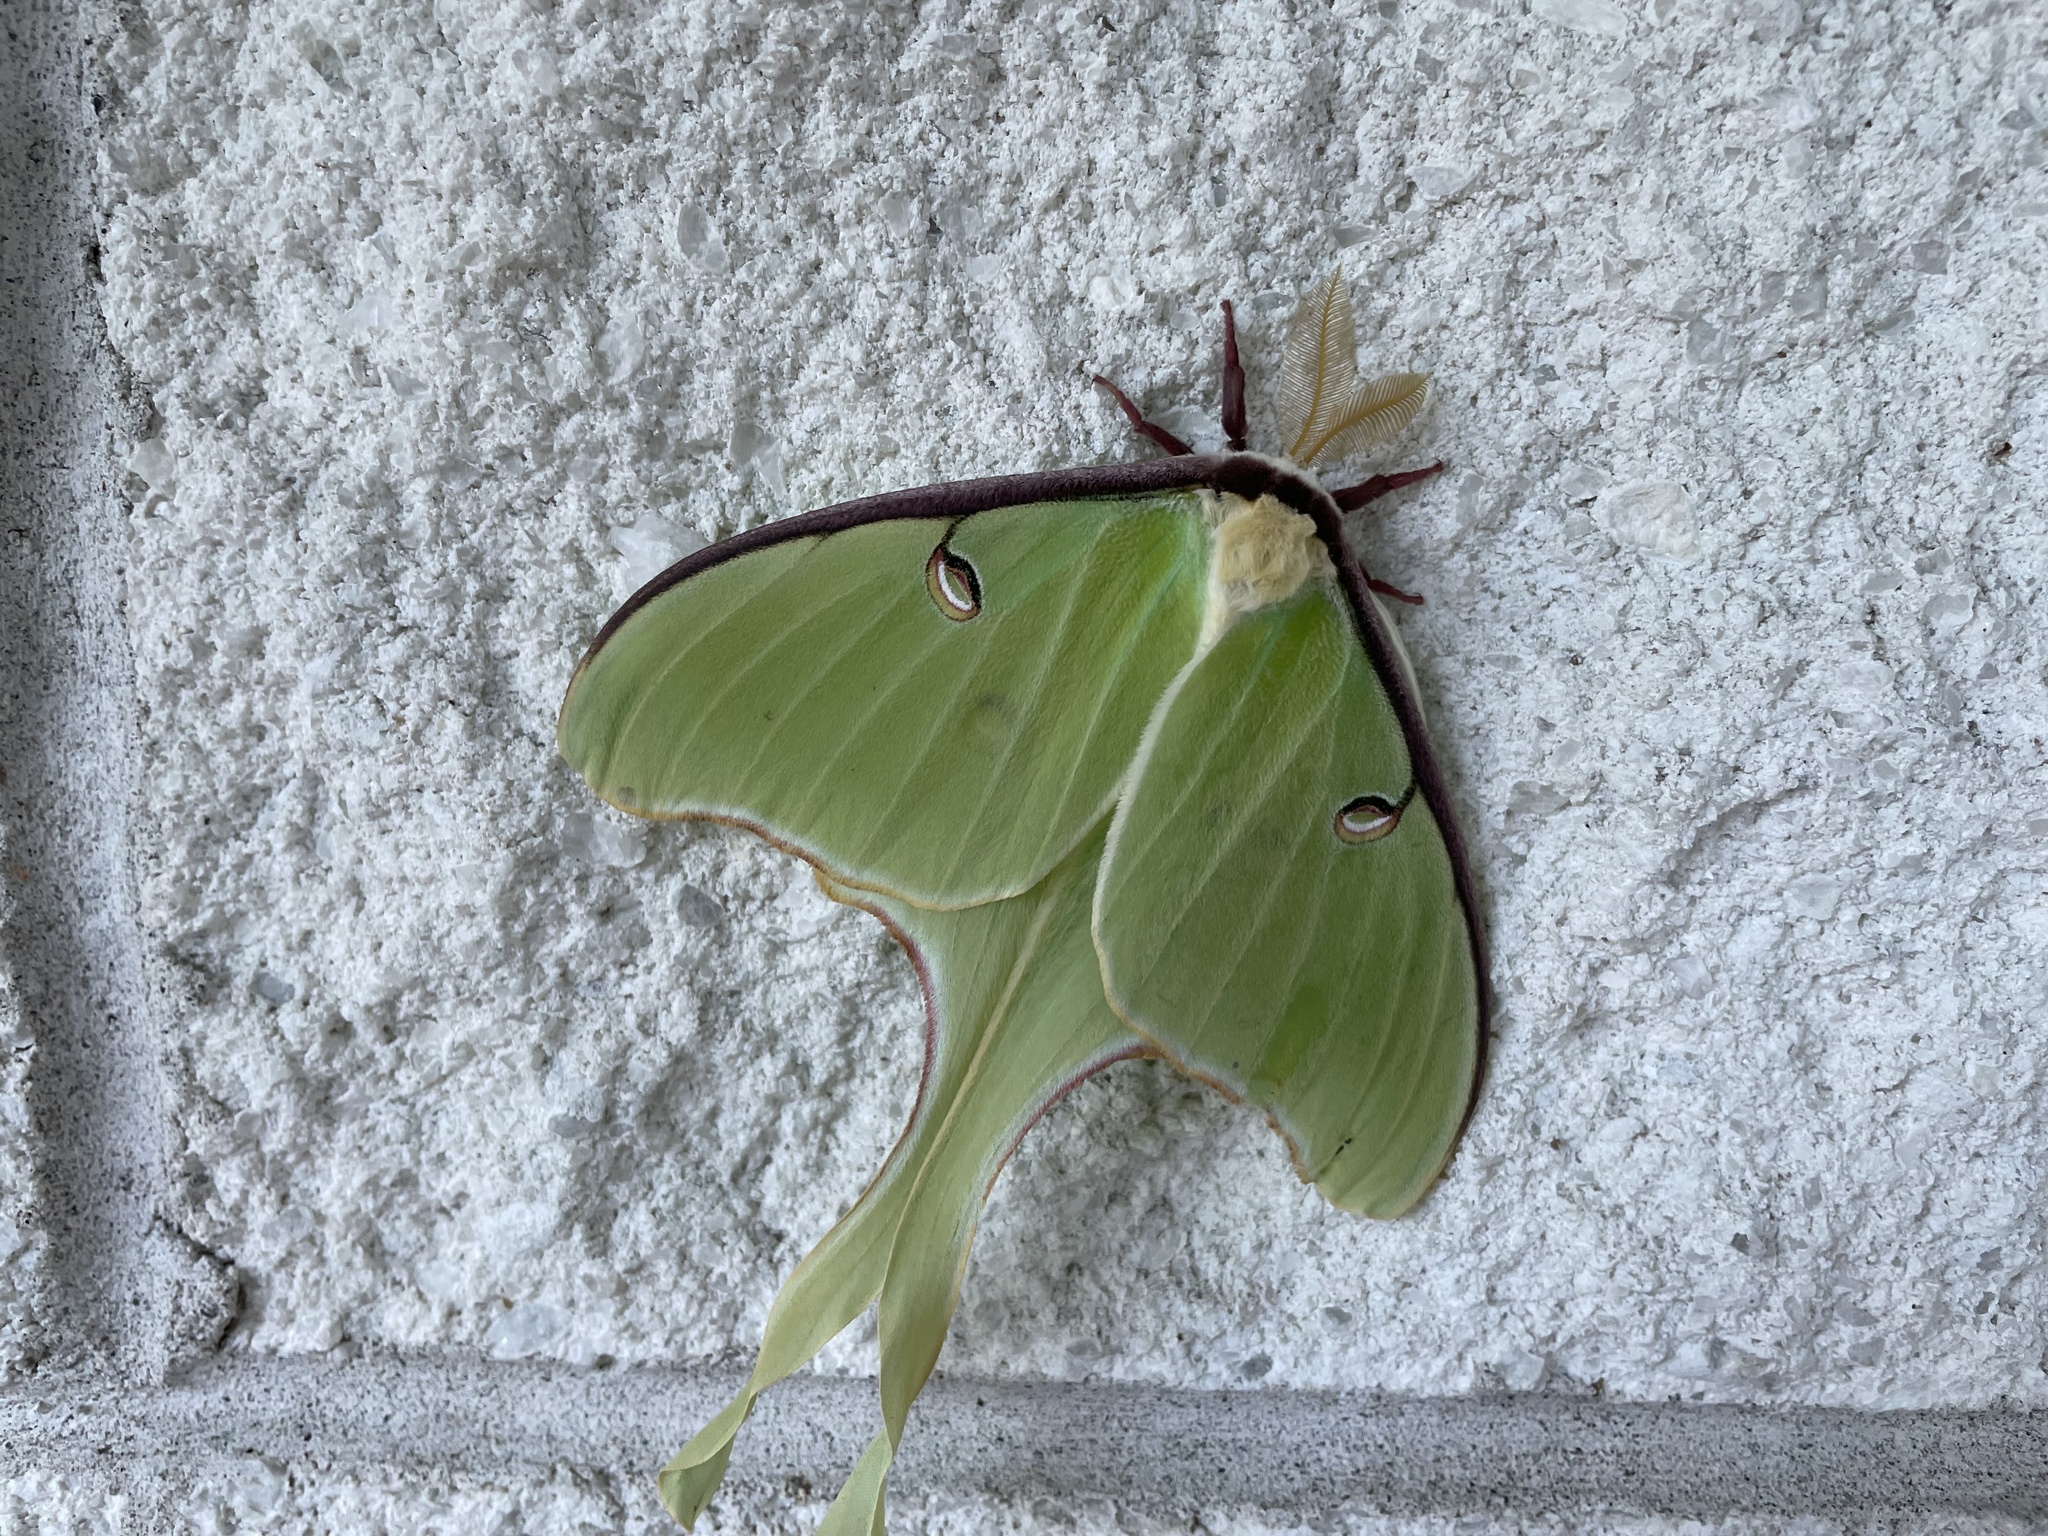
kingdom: Animalia
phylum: Arthropoda
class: Insecta
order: Lepidoptera
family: Saturniidae
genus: Actias
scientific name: Actias luna
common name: Luna moth
